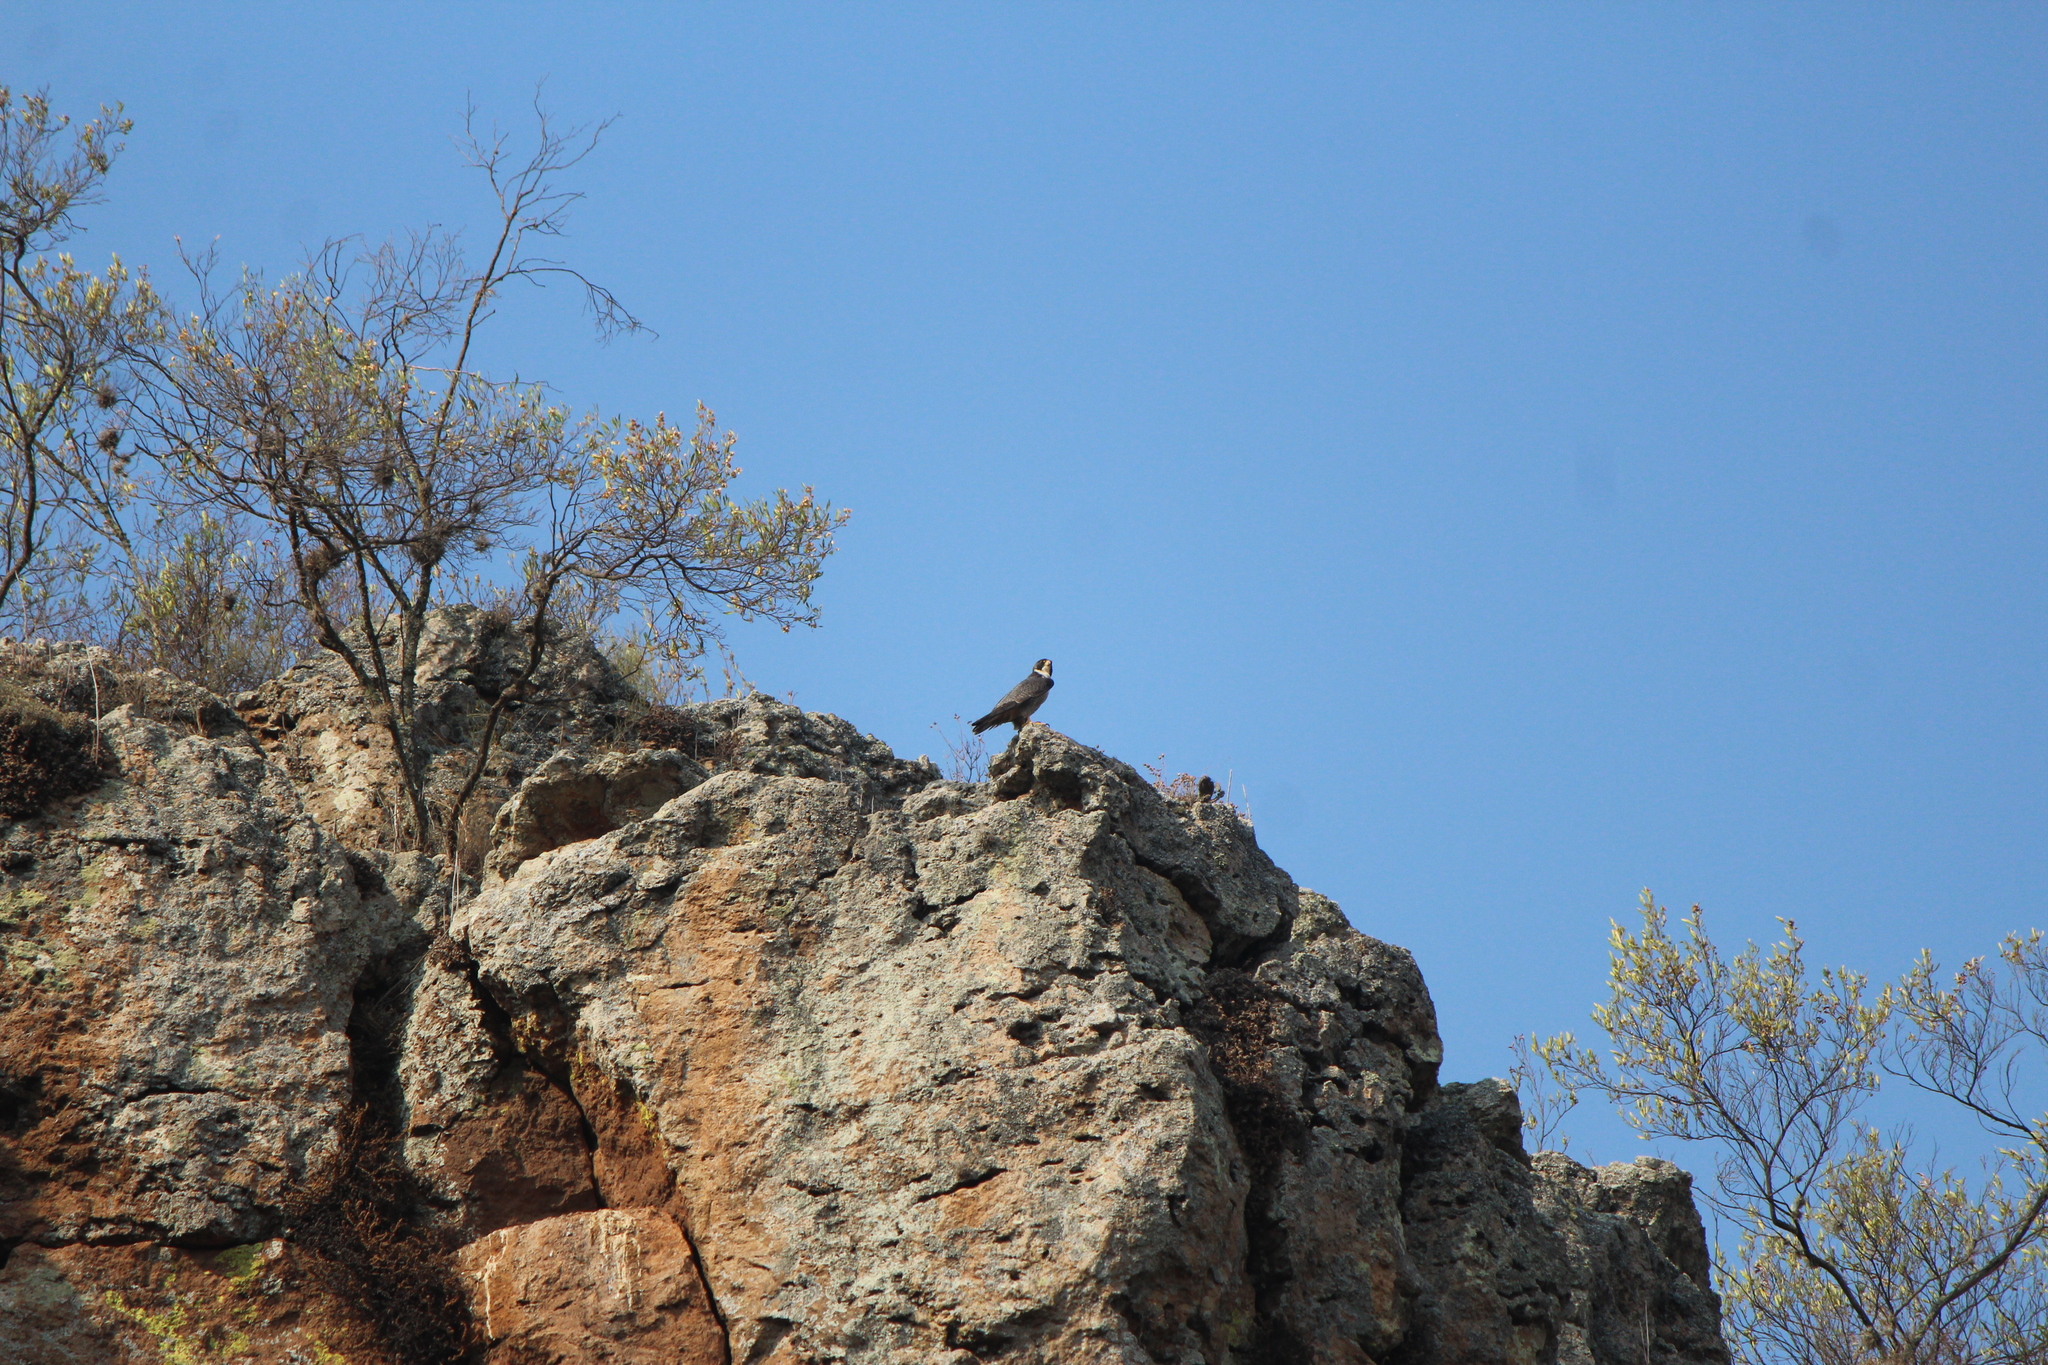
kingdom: Animalia
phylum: Chordata
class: Aves
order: Falconiformes
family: Falconidae
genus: Falco
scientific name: Falco peregrinus
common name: Peregrine falcon
